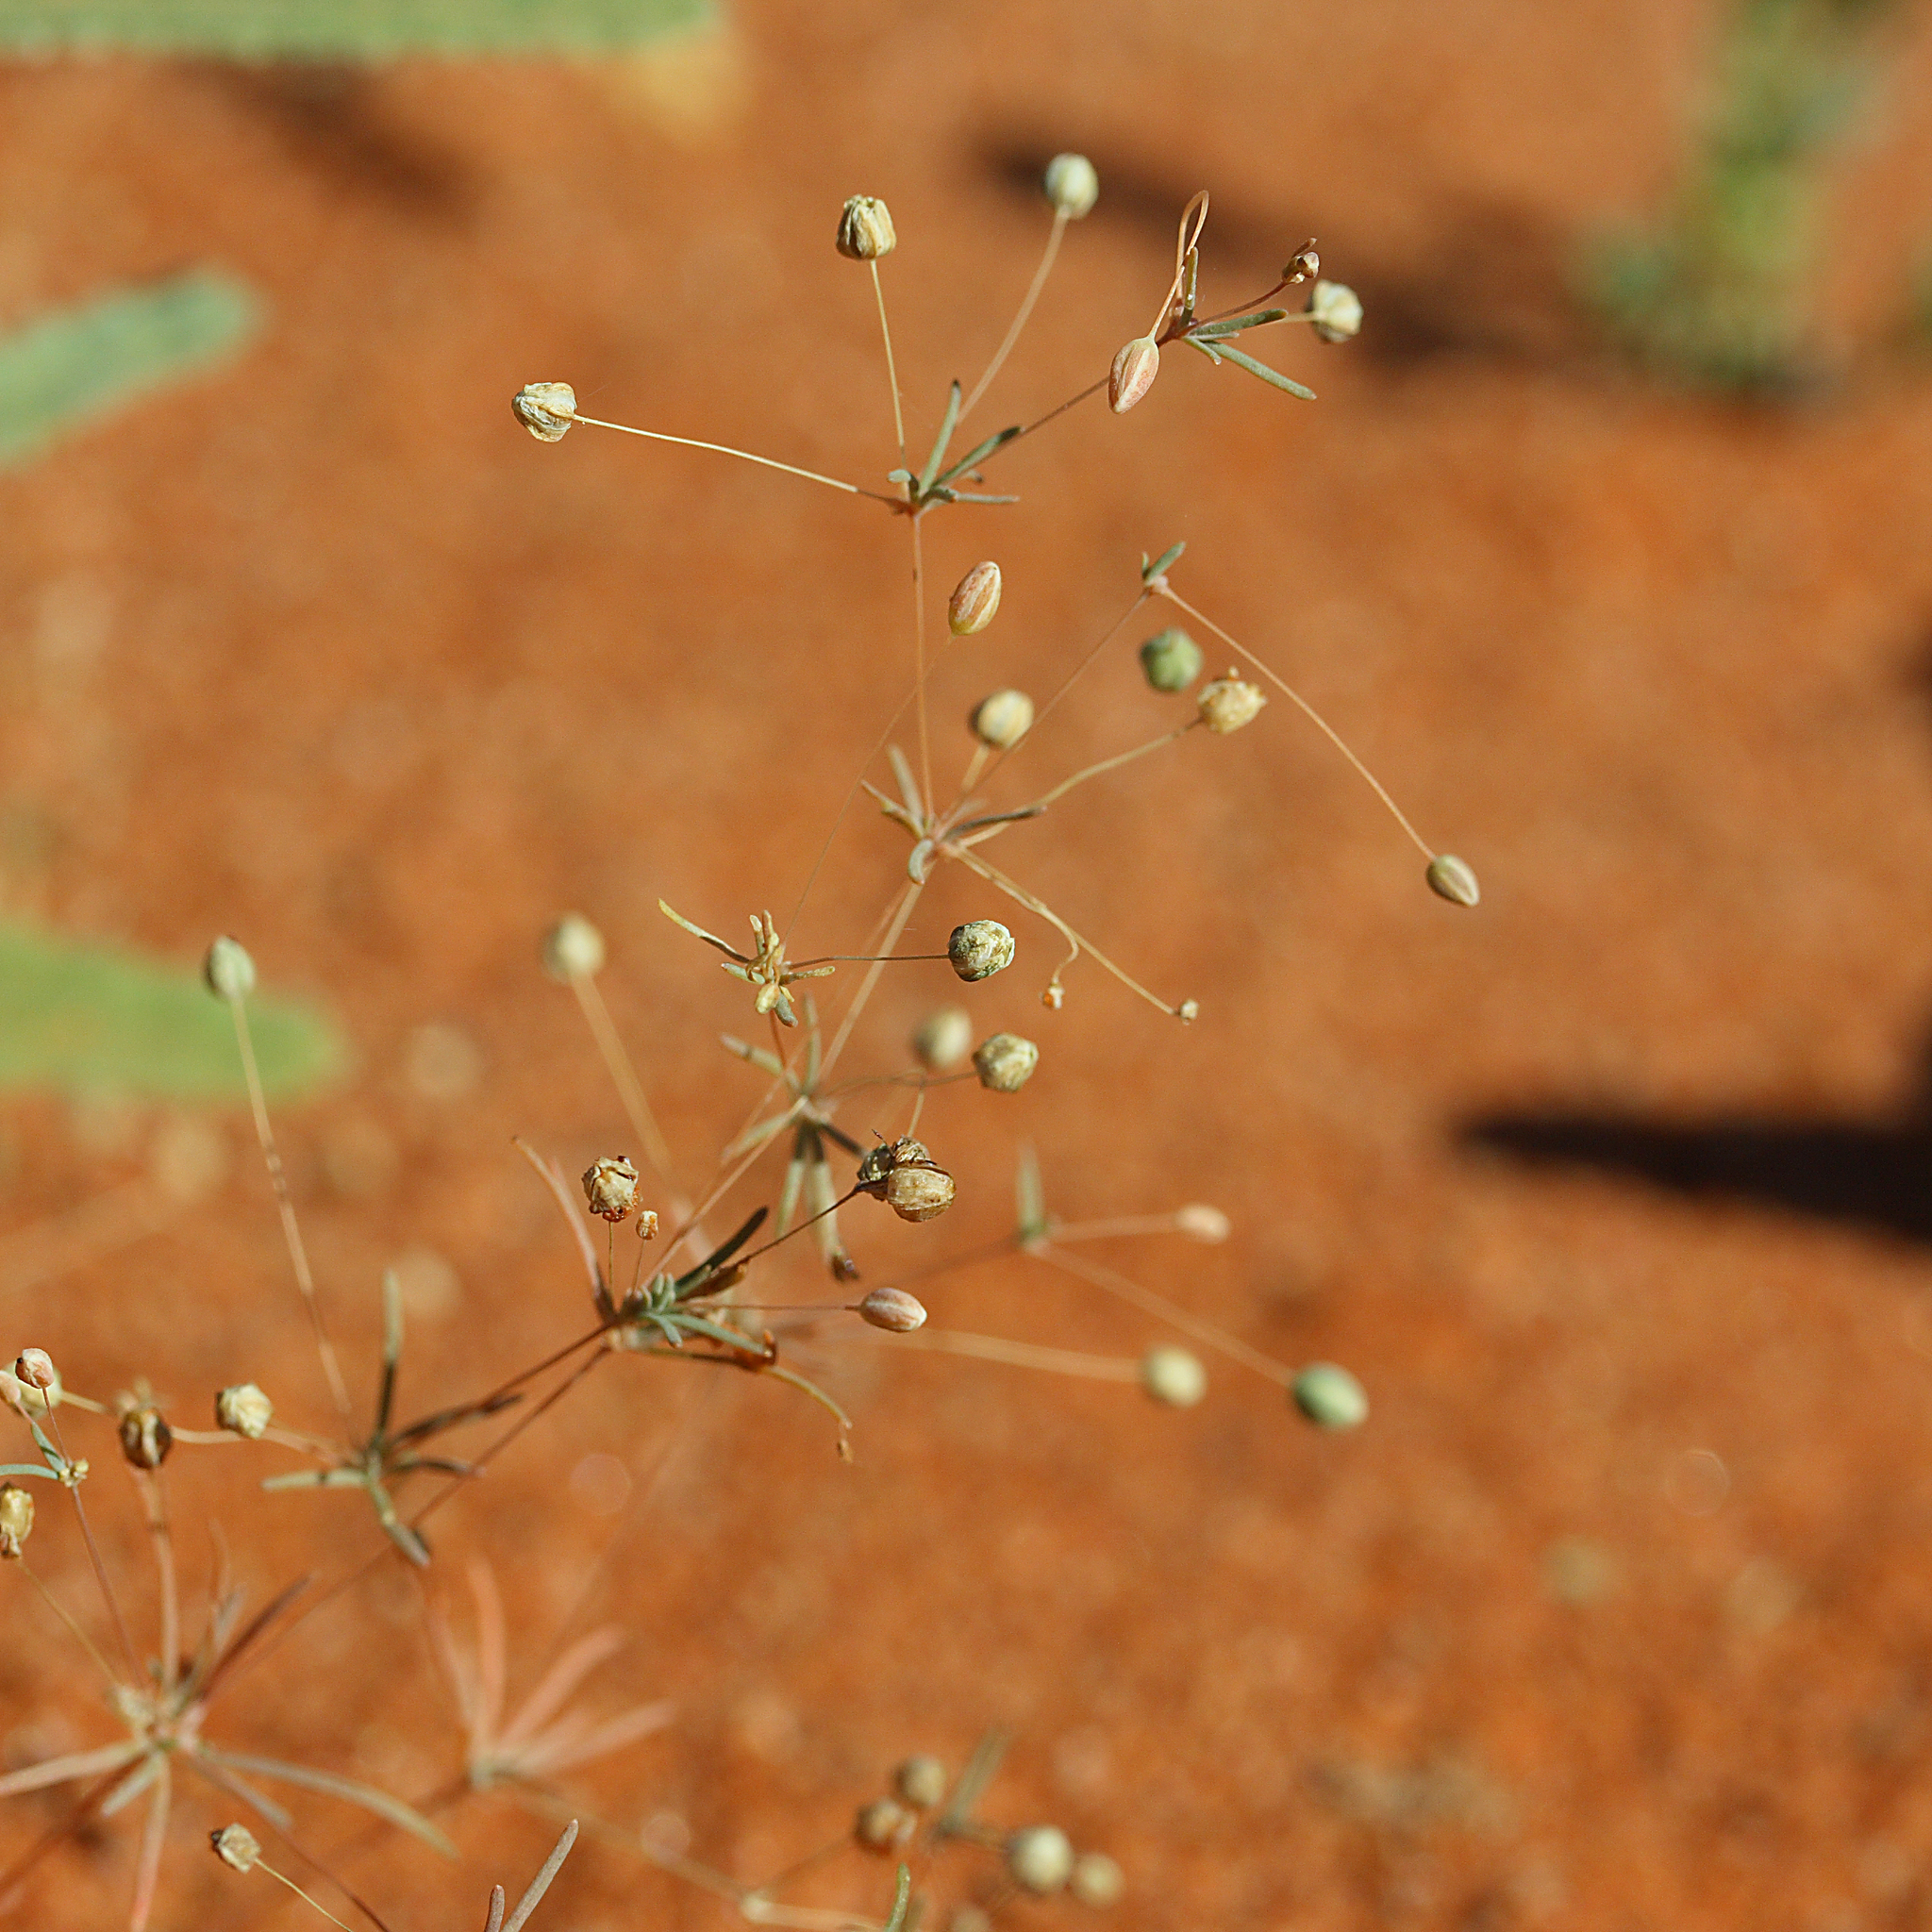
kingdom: Plantae
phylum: Tracheophyta
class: Magnoliopsida
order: Caryophyllales
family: Molluginaceae
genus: Hypertelis
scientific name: Hypertelis cerviana
